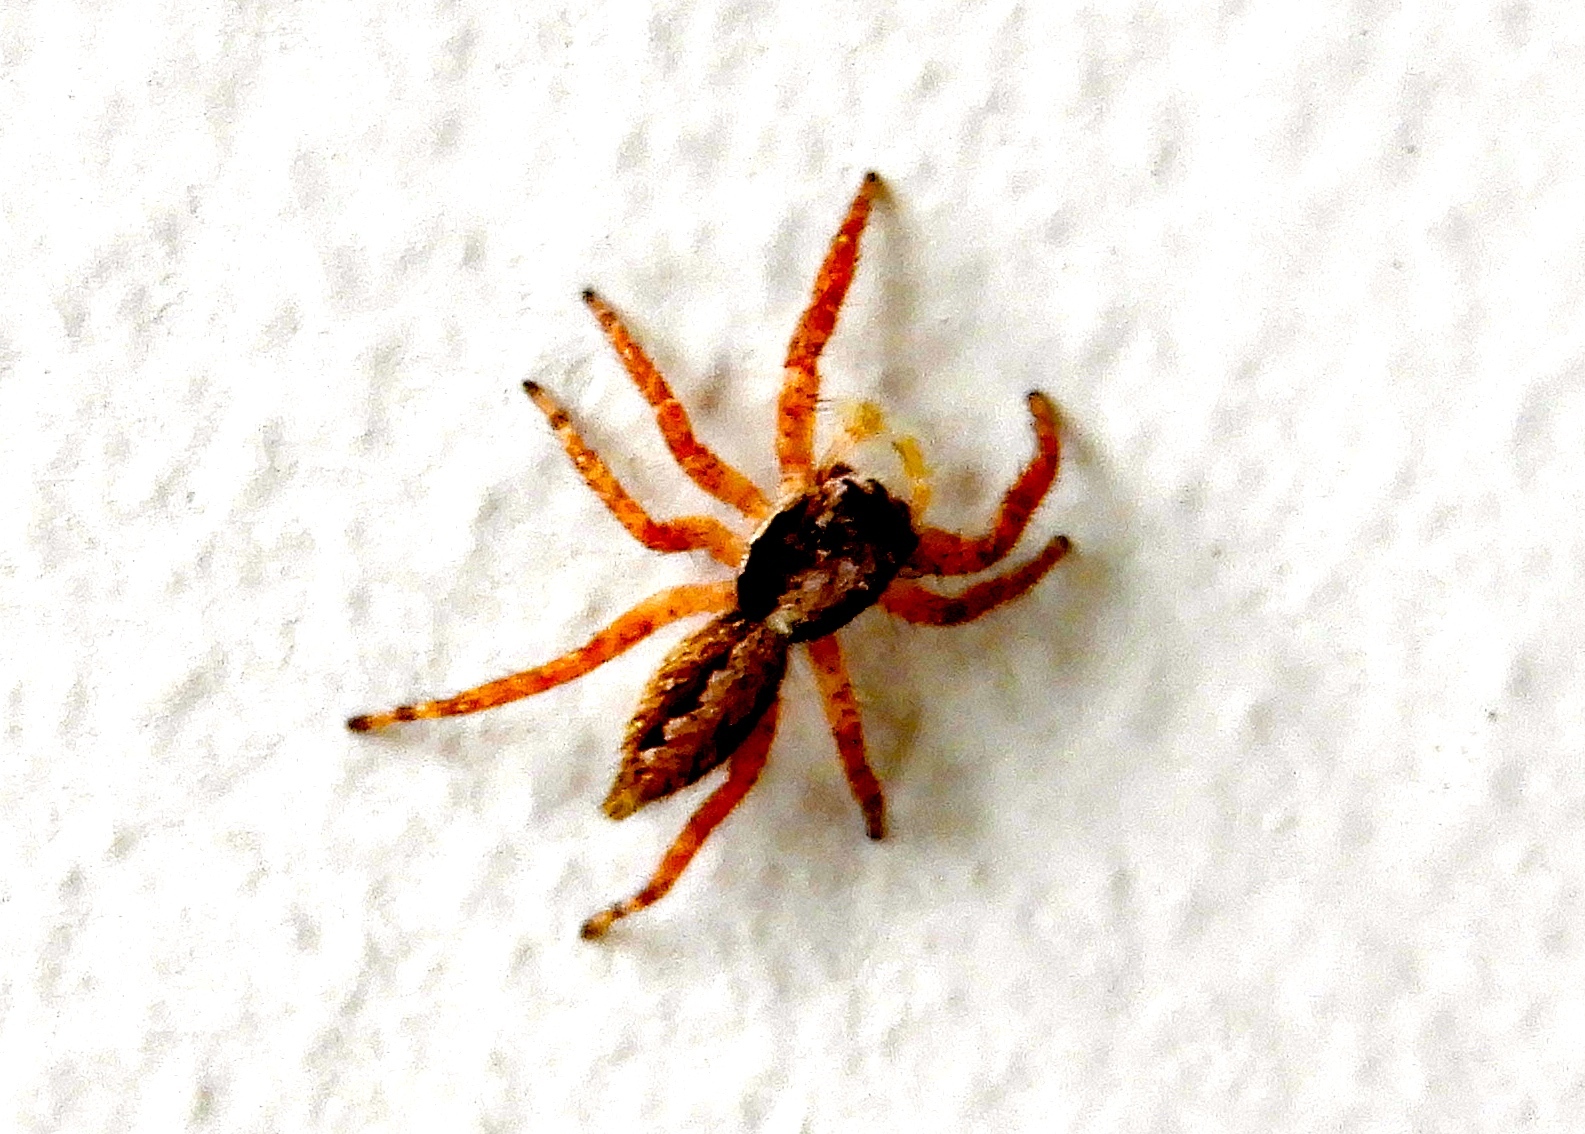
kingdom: Animalia
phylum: Arthropoda
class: Arachnida
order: Araneae
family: Salticidae
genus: Balmaceda
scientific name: Balmaceda
